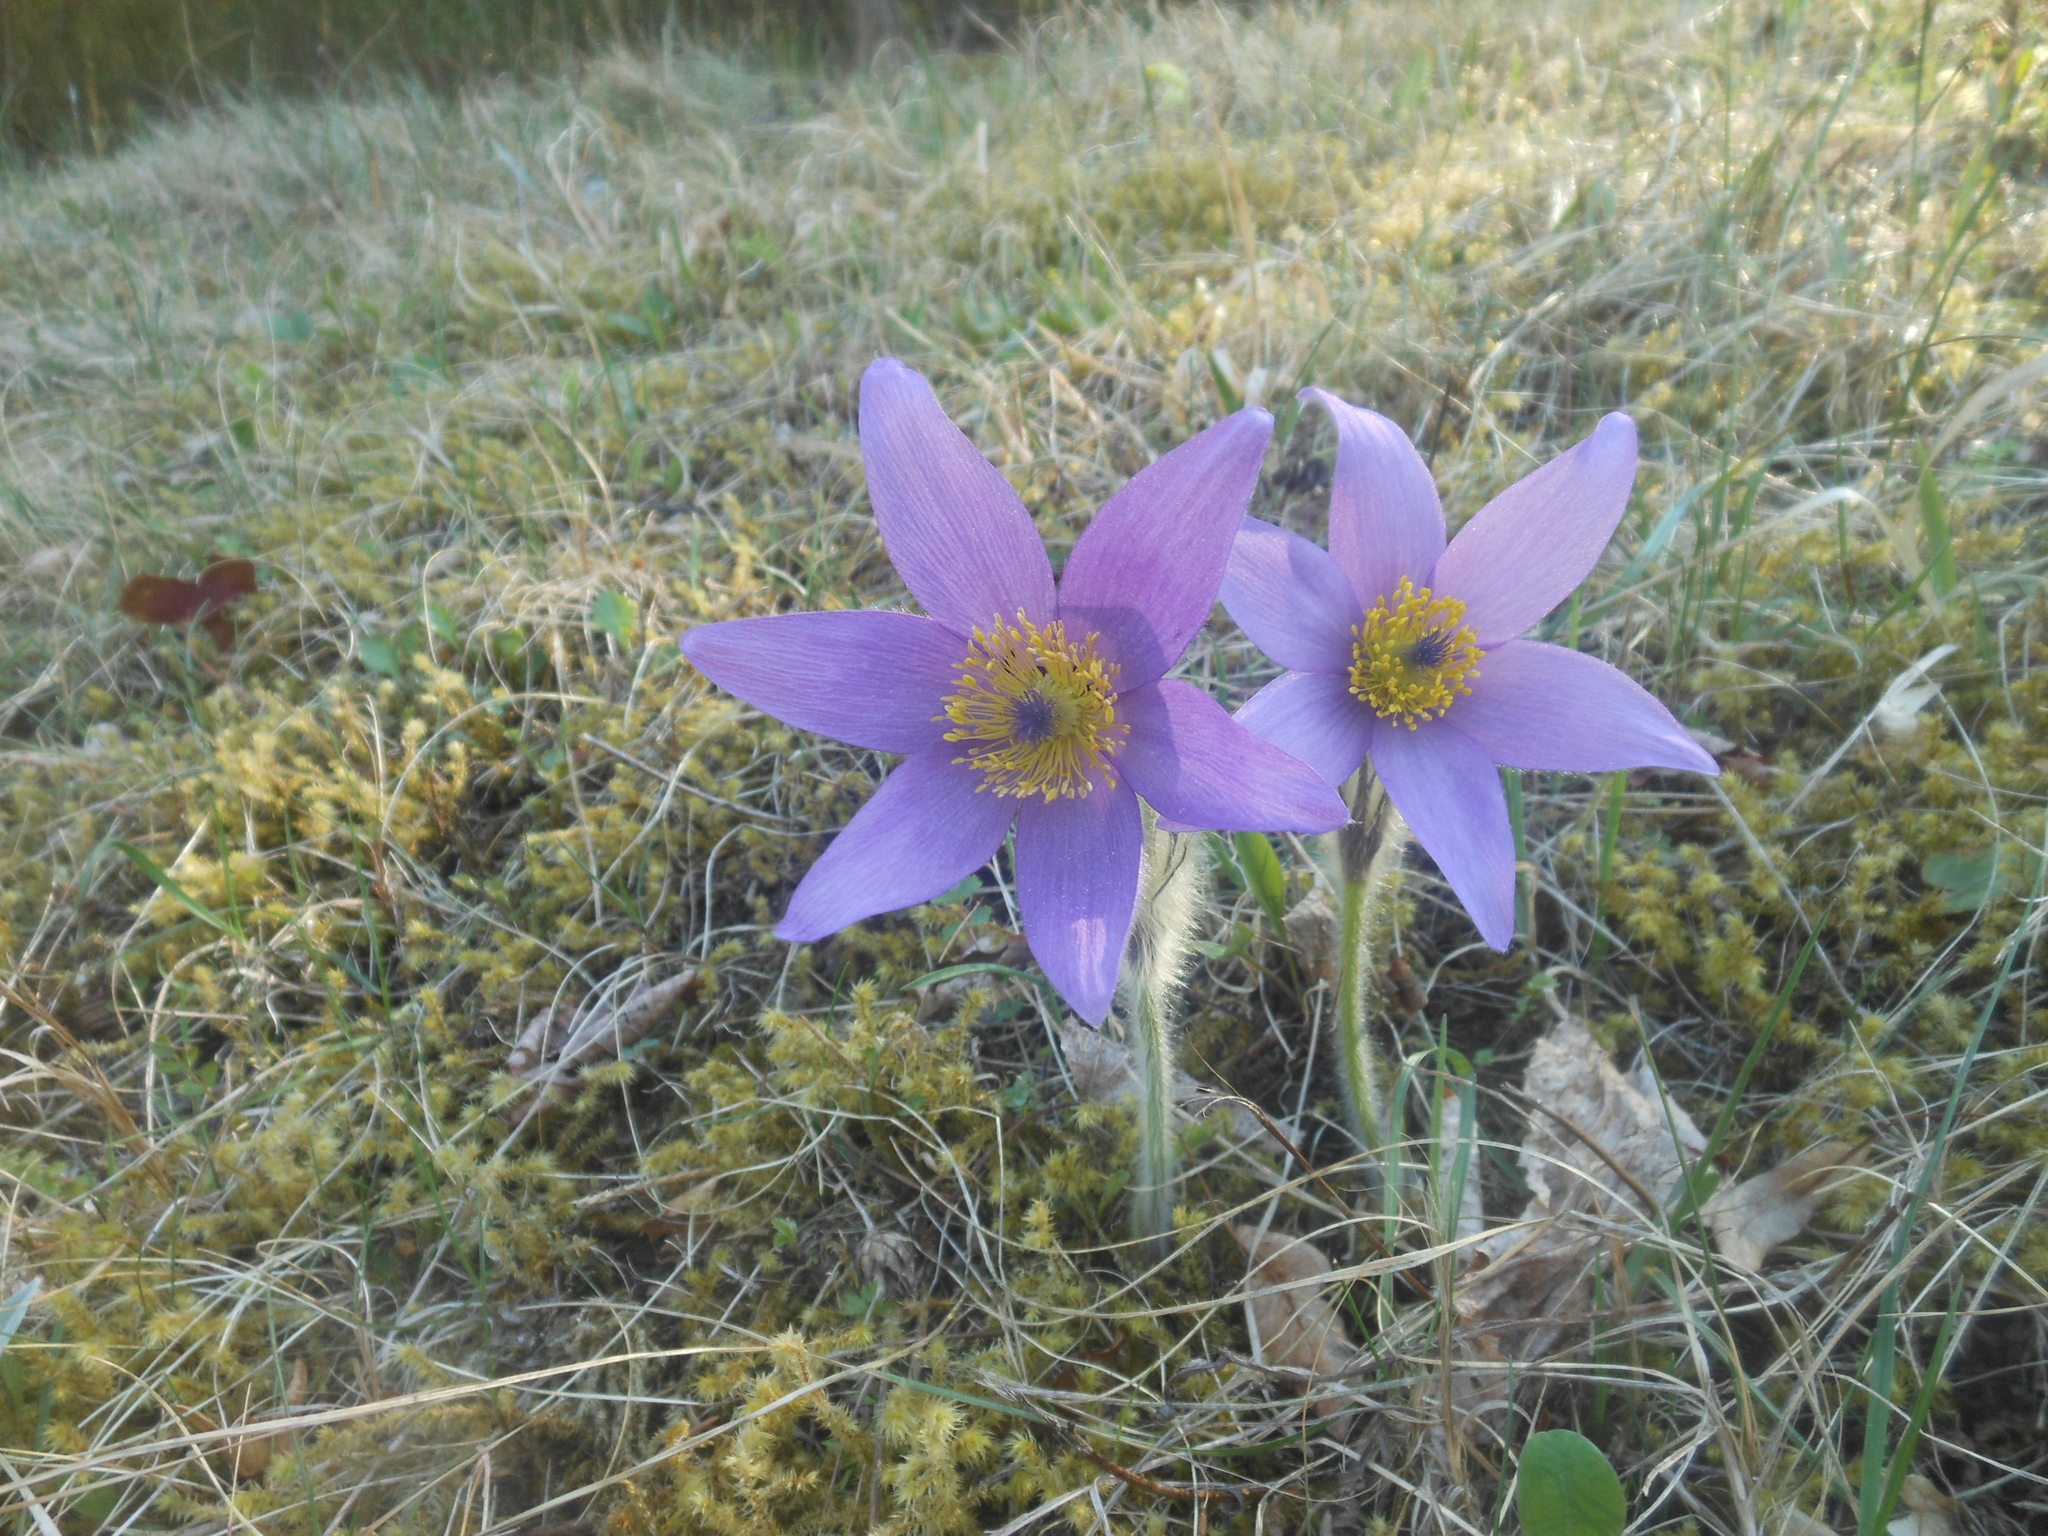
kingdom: Plantae
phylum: Tracheophyta
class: Magnoliopsida
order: Ranunculales
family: Ranunculaceae
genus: Pulsatilla
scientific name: Pulsatilla grandis
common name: Greater pasque flower
